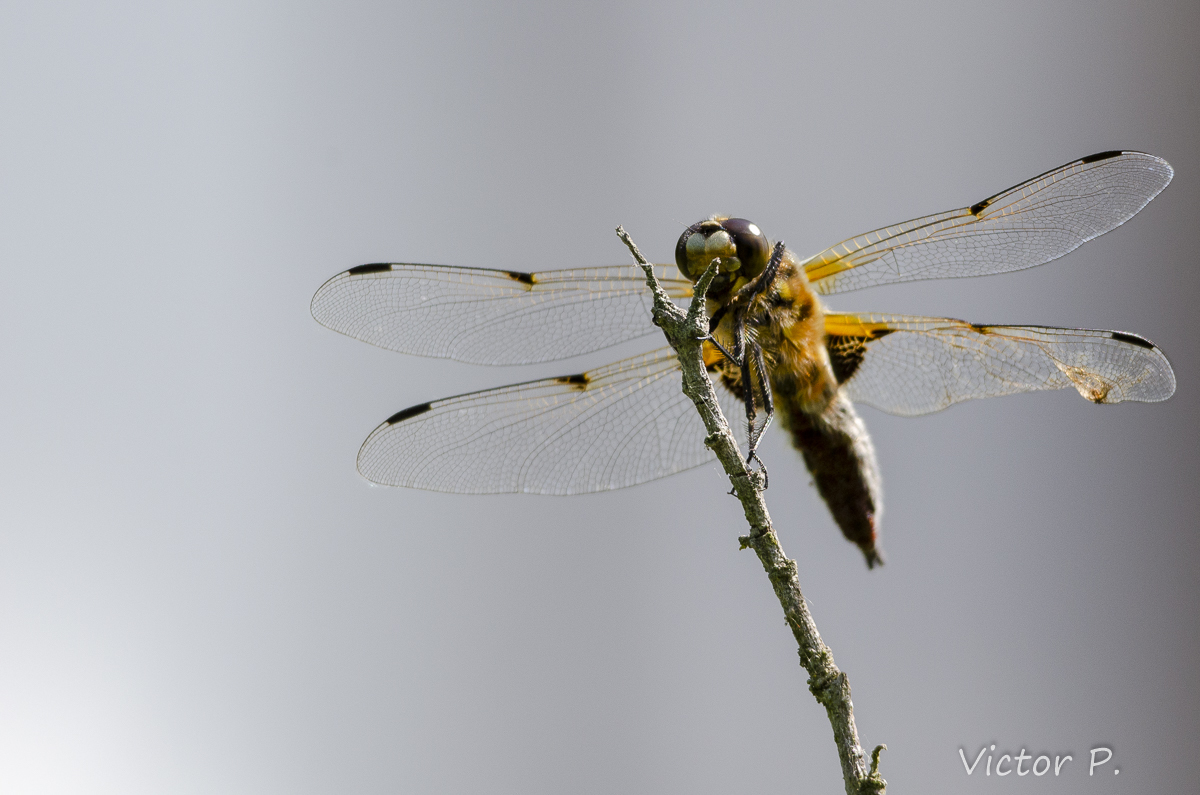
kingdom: Animalia
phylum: Arthropoda
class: Insecta
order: Odonata
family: Libellulidae
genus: Libellula
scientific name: Libellula quadrimaculata
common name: Four-spotted chaser
